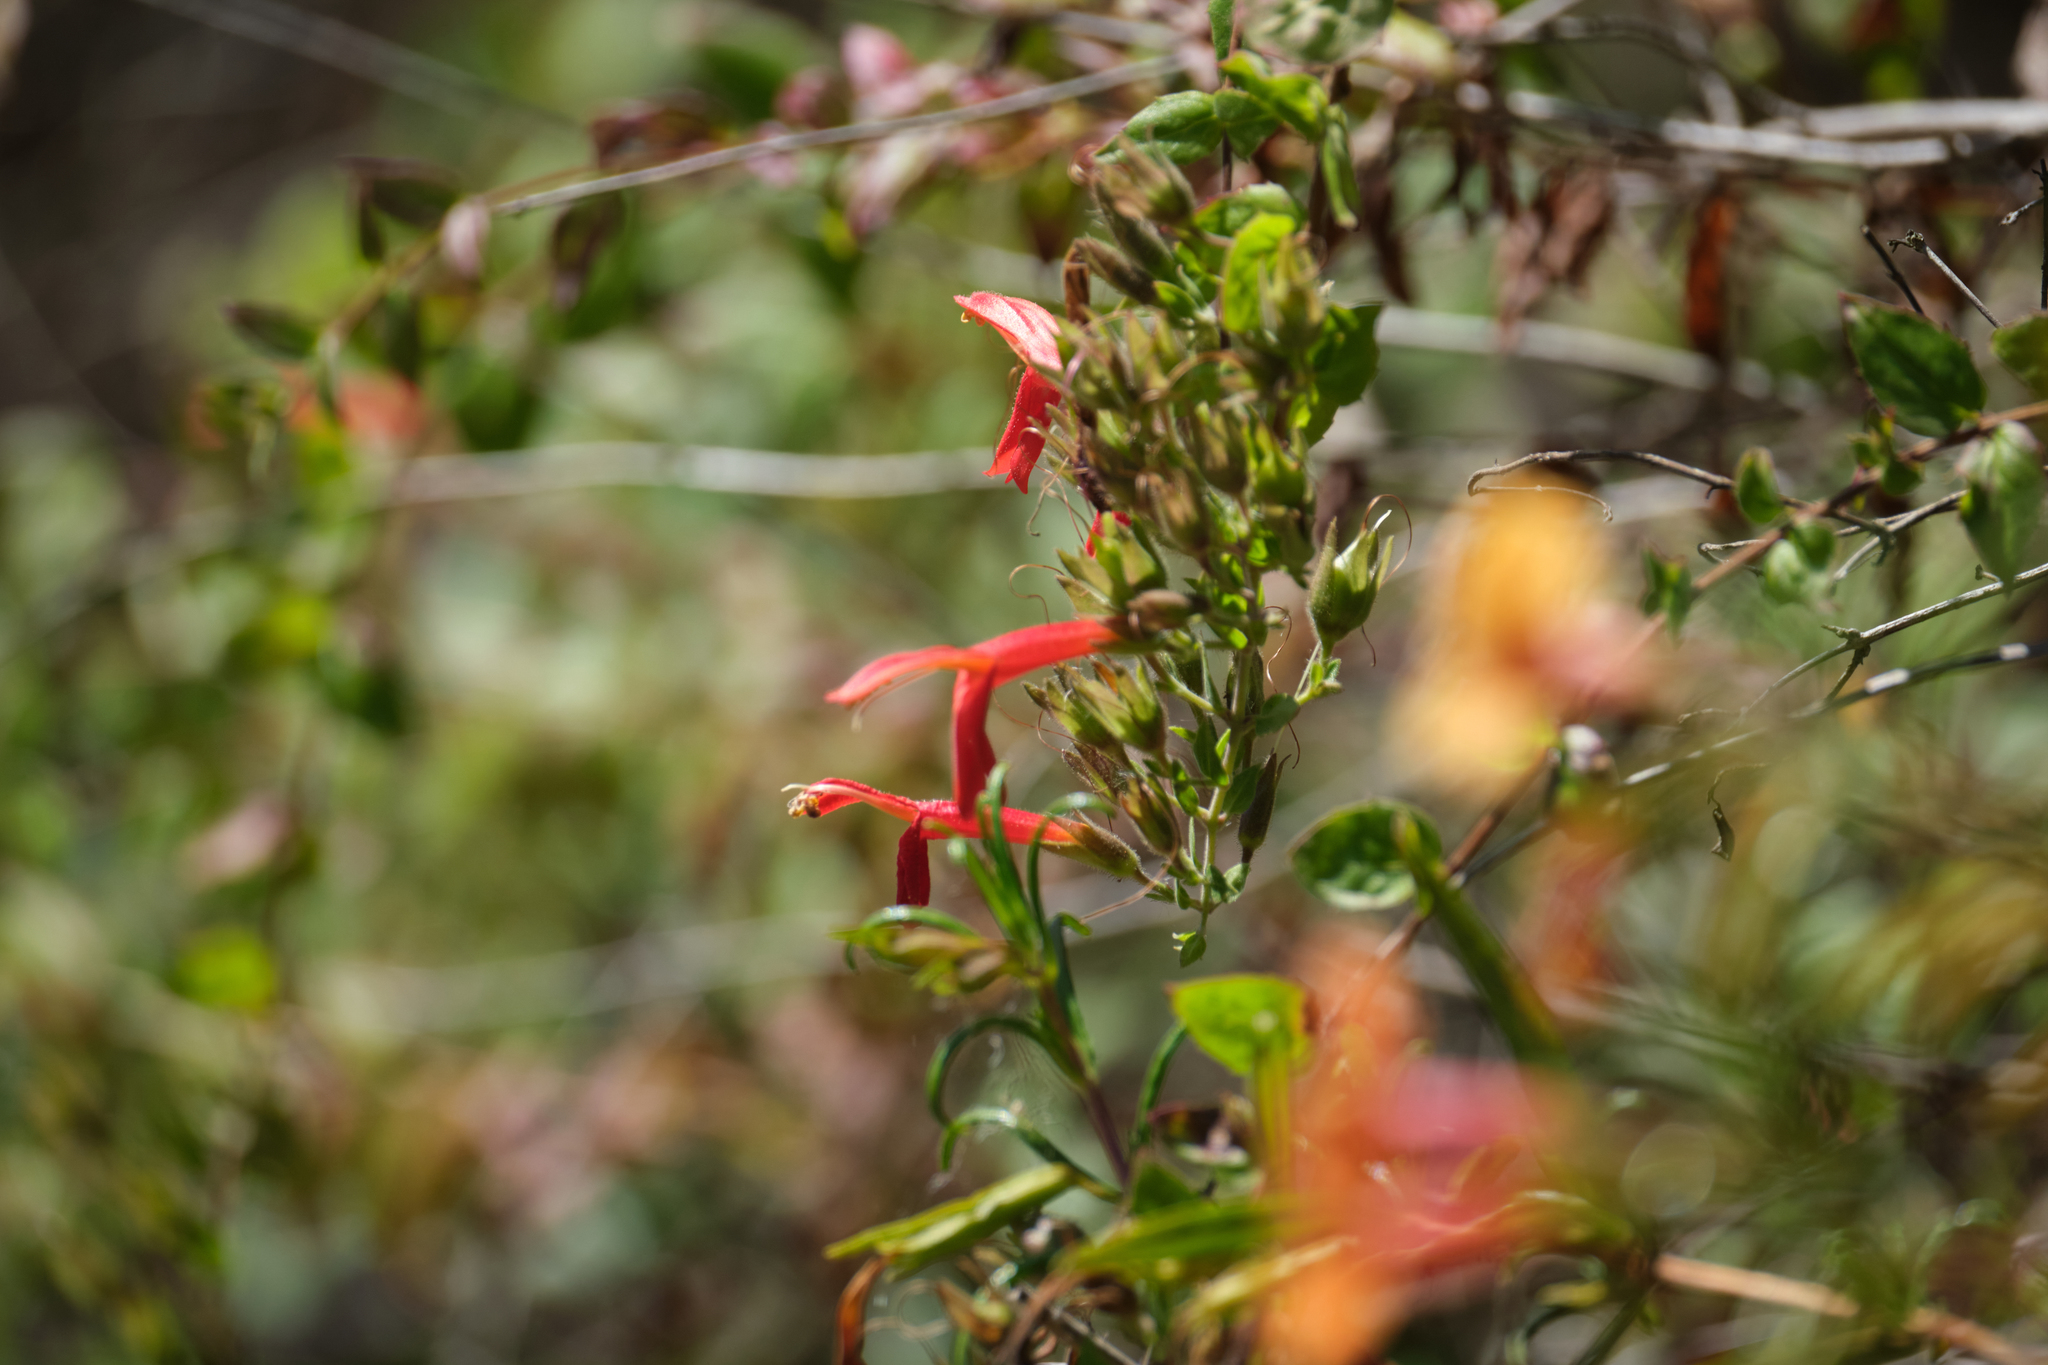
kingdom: Plantae
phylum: Tracheophyta
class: Magnoliopsida
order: Lamiales
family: Plantaginaceae
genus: Keckiella
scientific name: Keckiella cordifolia
